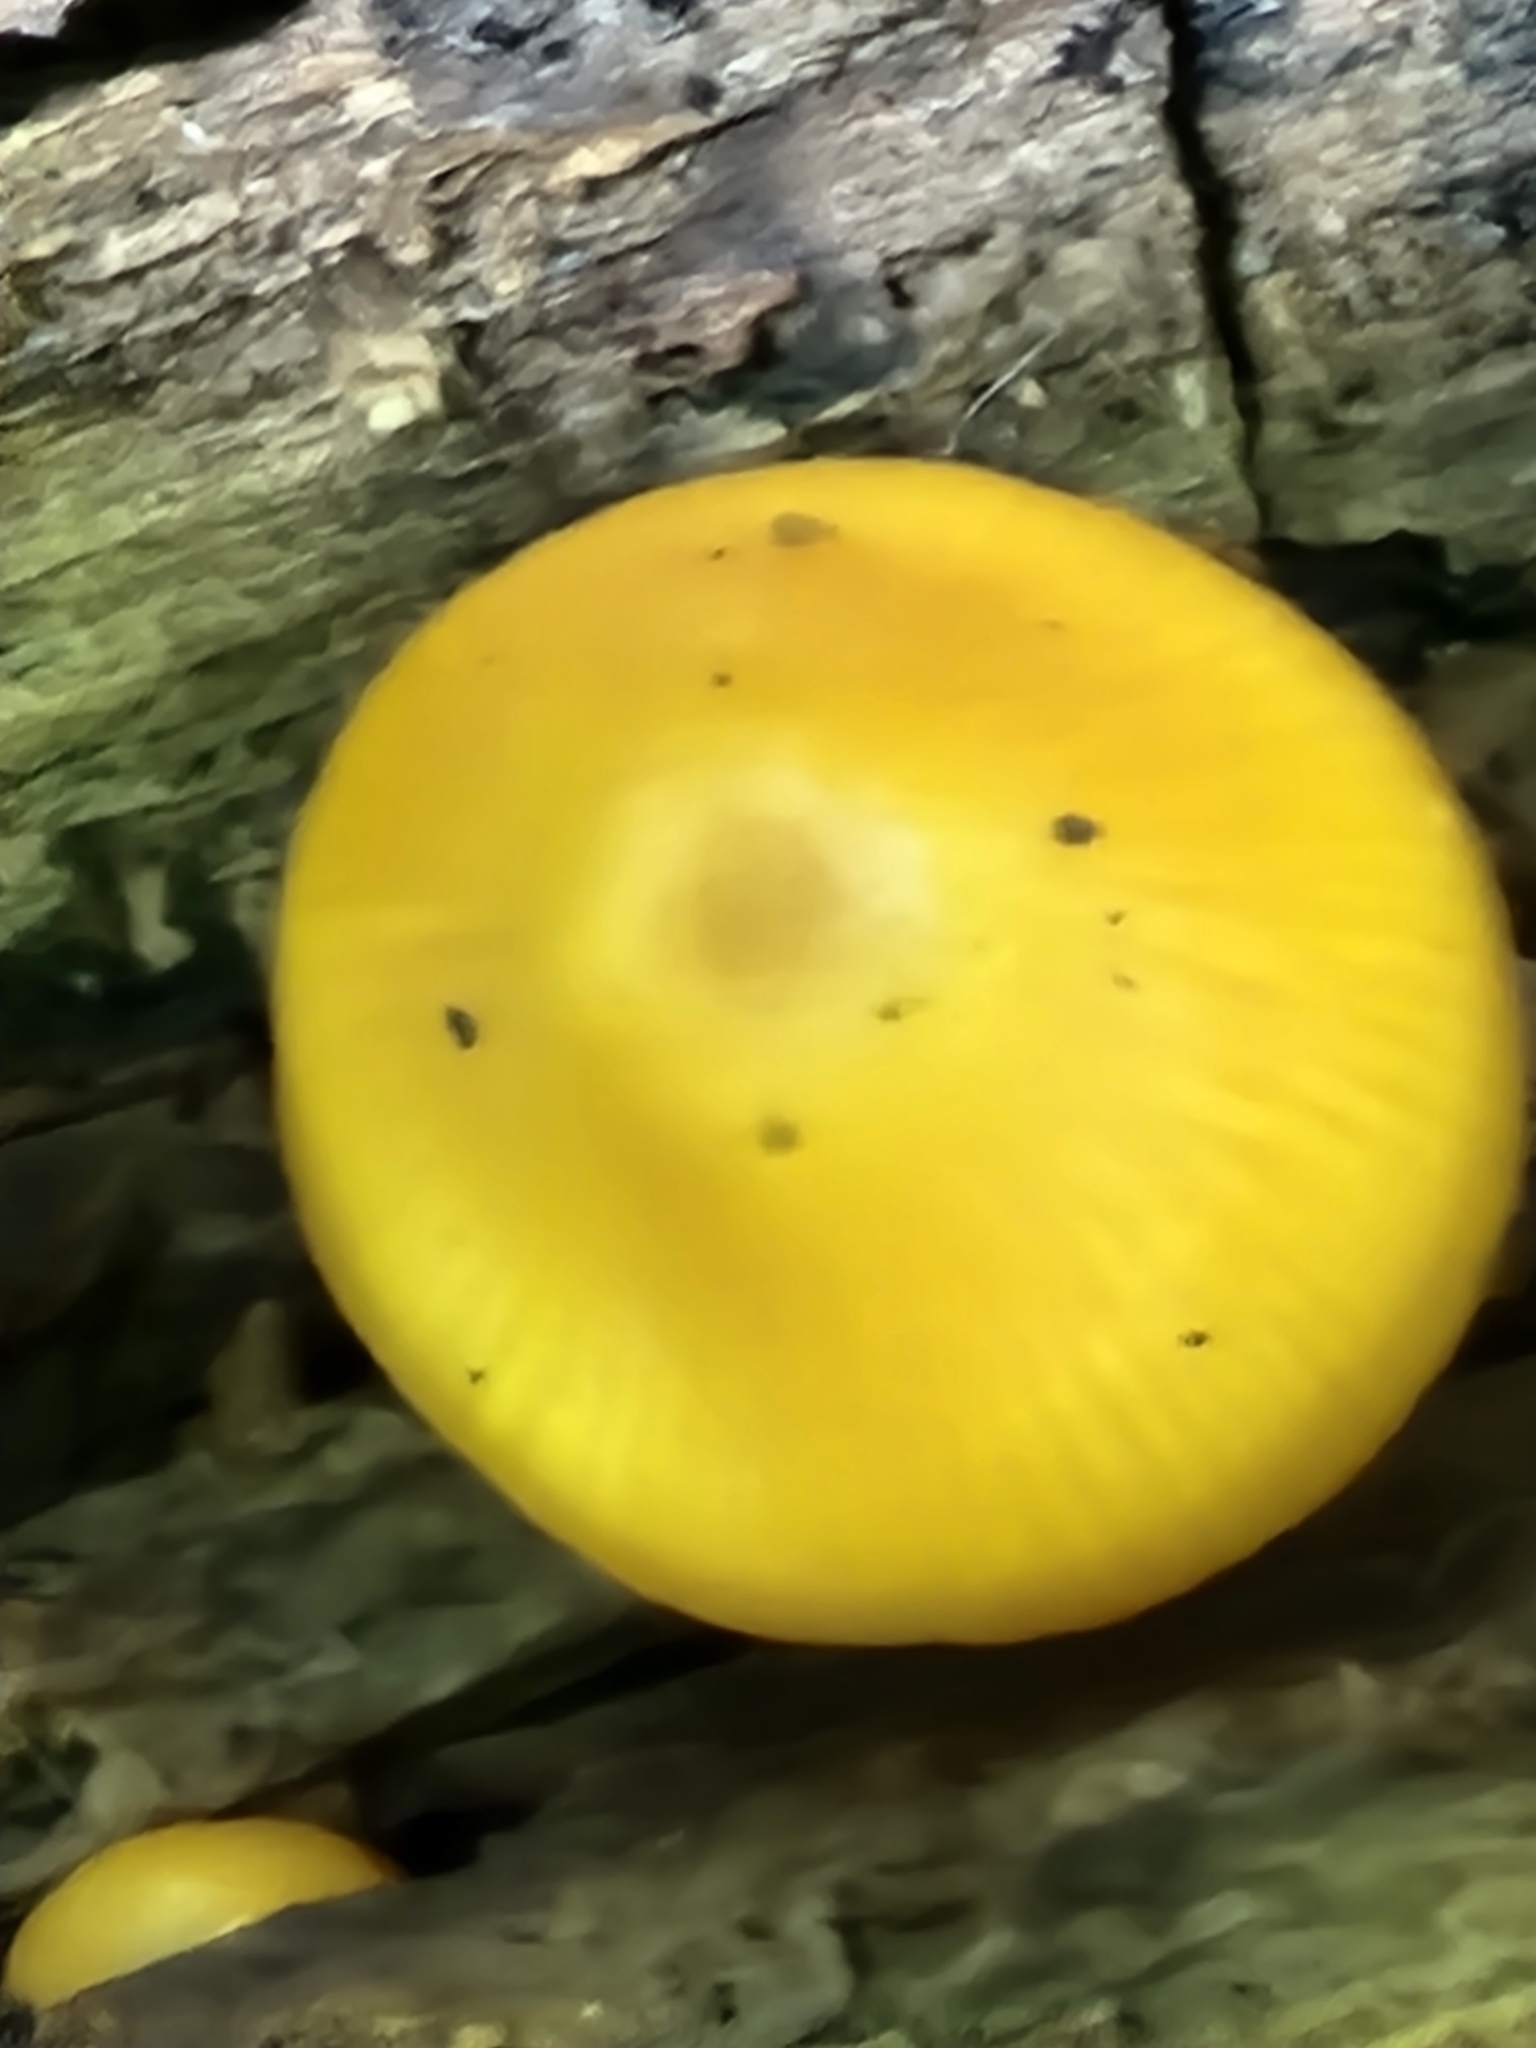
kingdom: Fungi
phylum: Basidiomycota
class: Agaricomycetes
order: Agaricales
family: Mycenaceae
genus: Mycena
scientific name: Mycena leaiana
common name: Orange mycena
